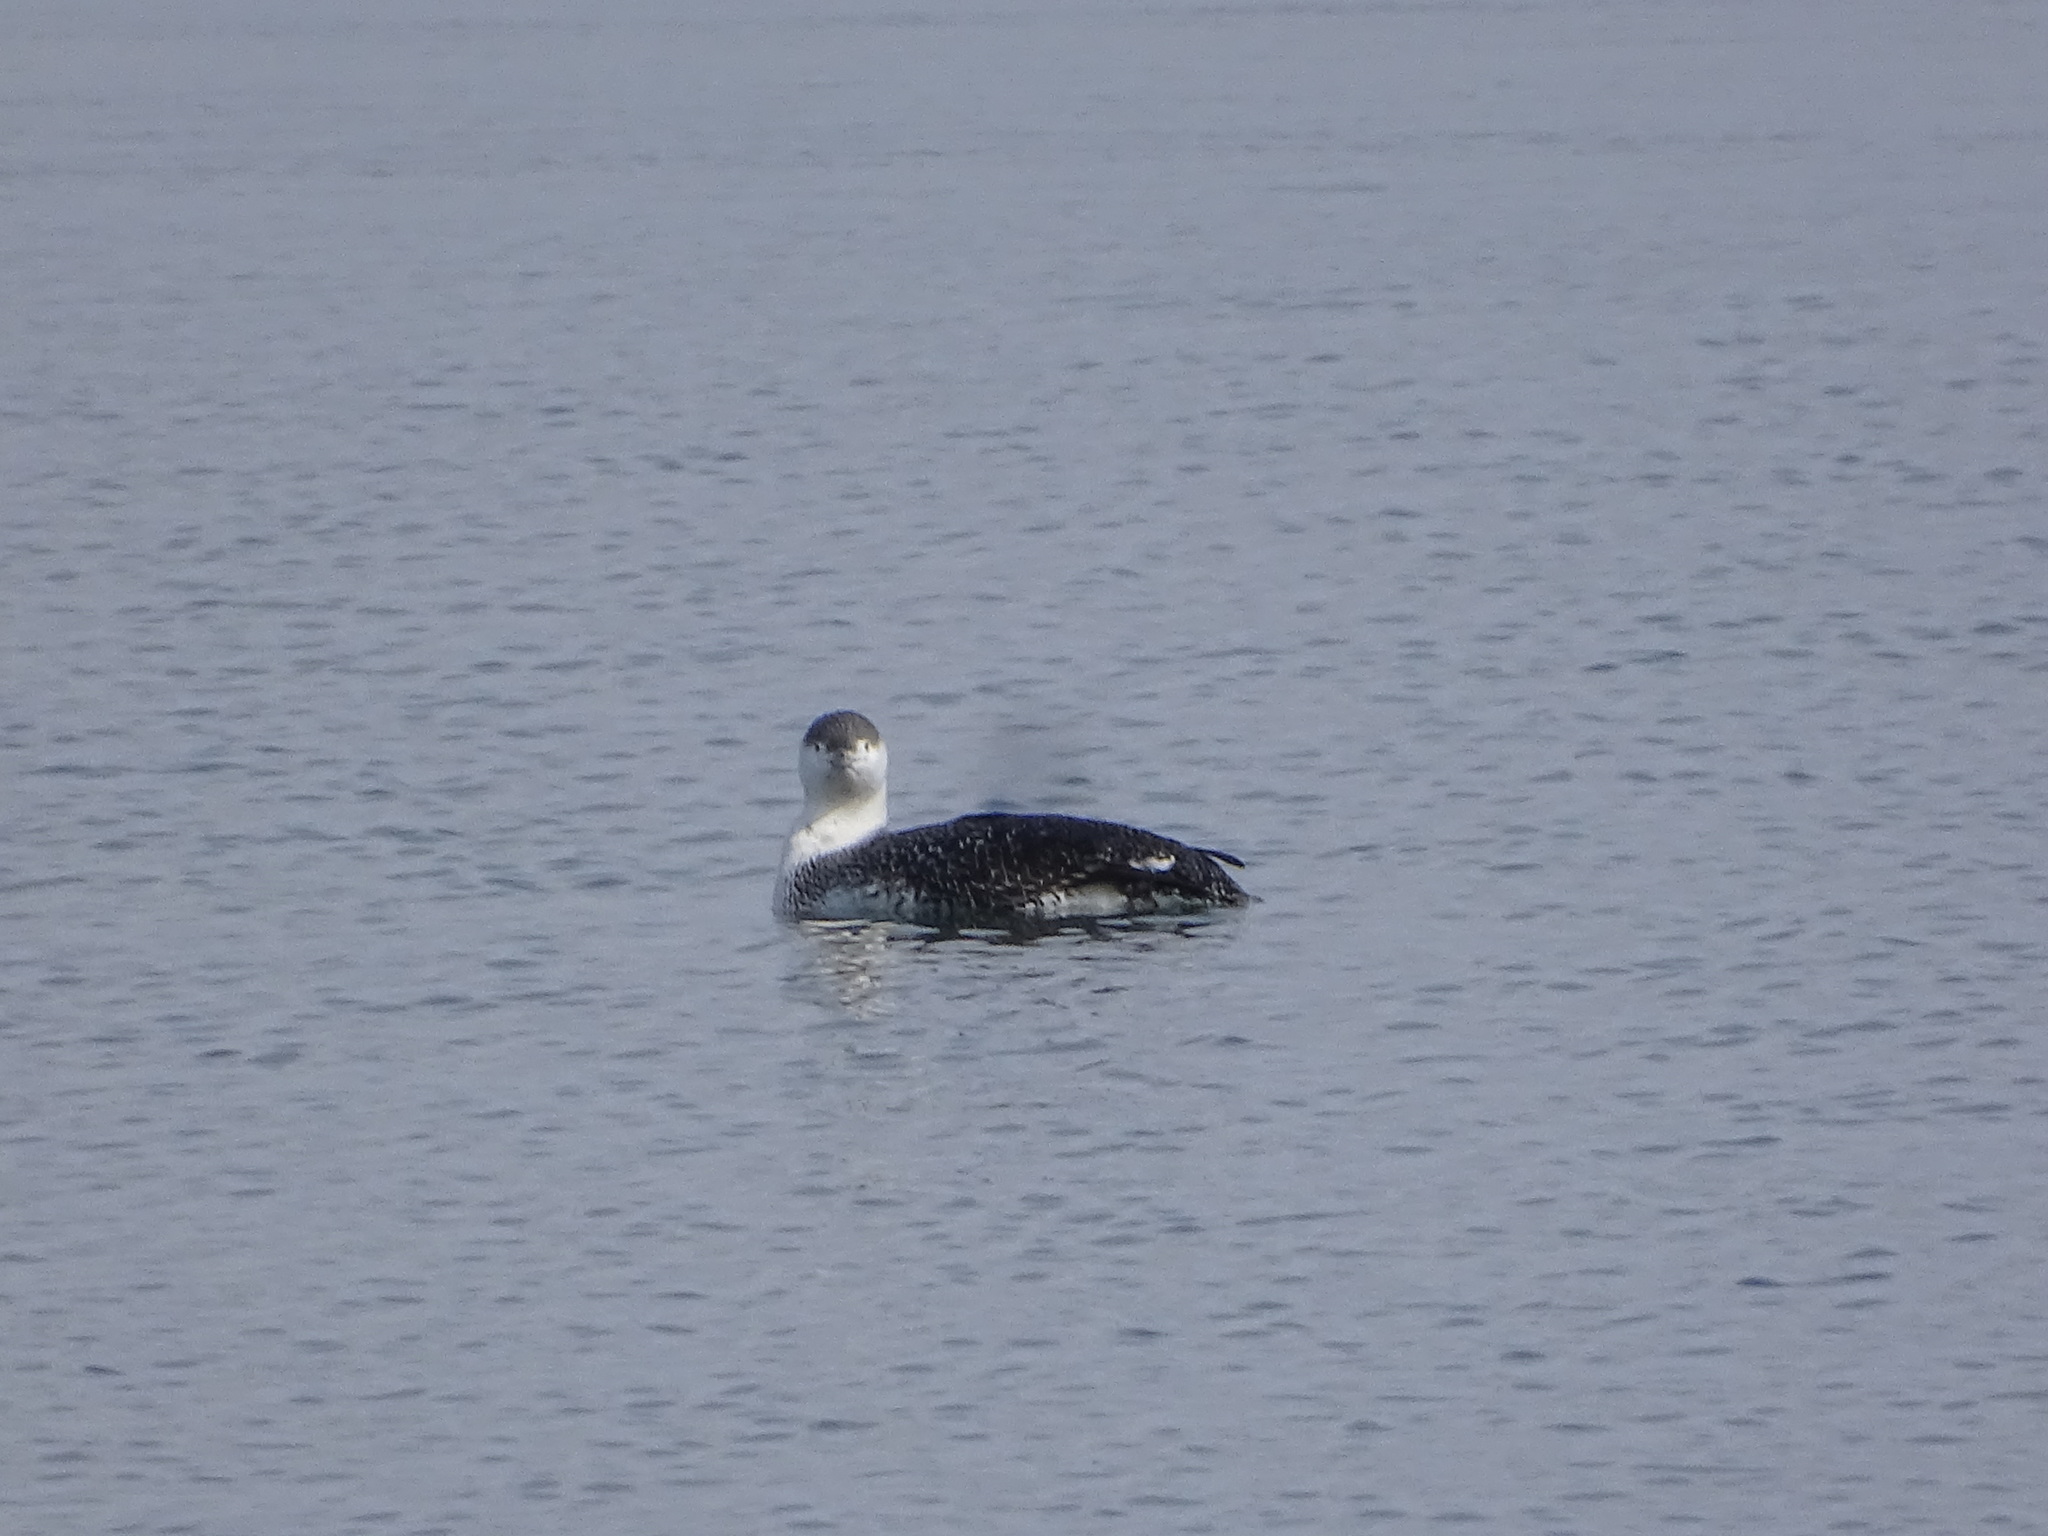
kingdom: Animalia
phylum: Chordata
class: Aves
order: Gaviiformes
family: Gaviidae
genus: Gavia
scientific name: Gavia stellata
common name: Red-throated loon
